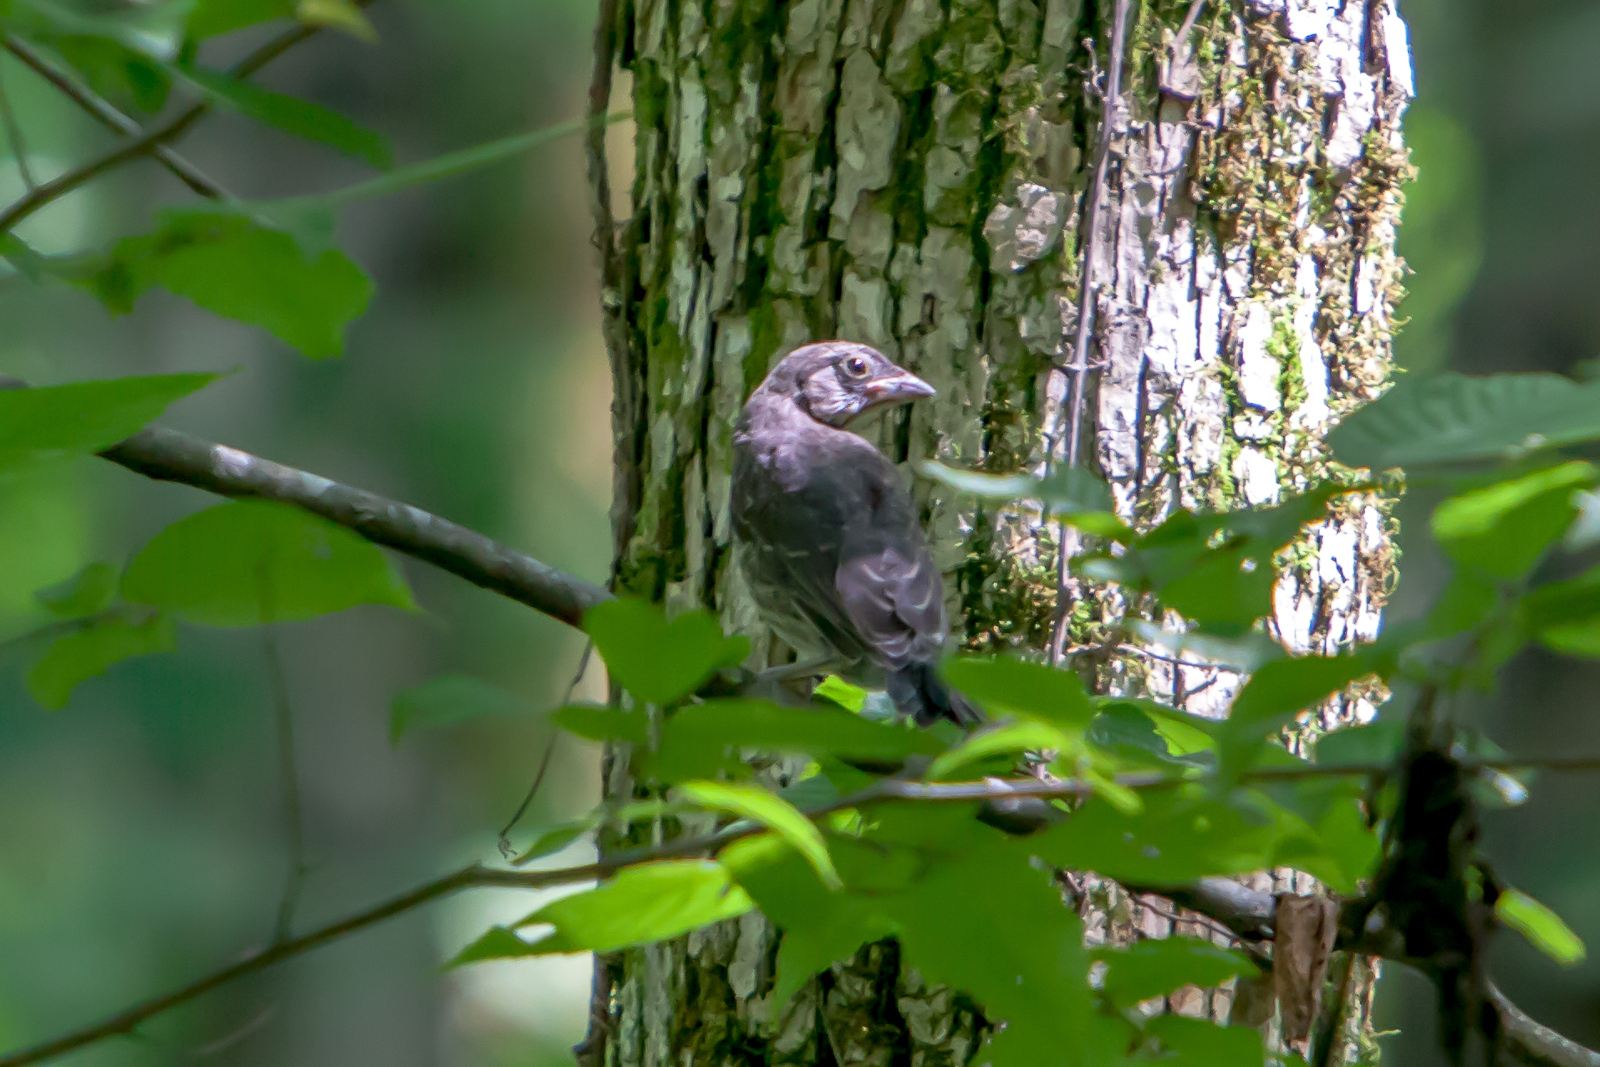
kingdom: Animalia
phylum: Chordata
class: Aves
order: Passeriformes
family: Turdidae
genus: Sialia
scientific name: Sialia sialis
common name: Eastern bluebird
